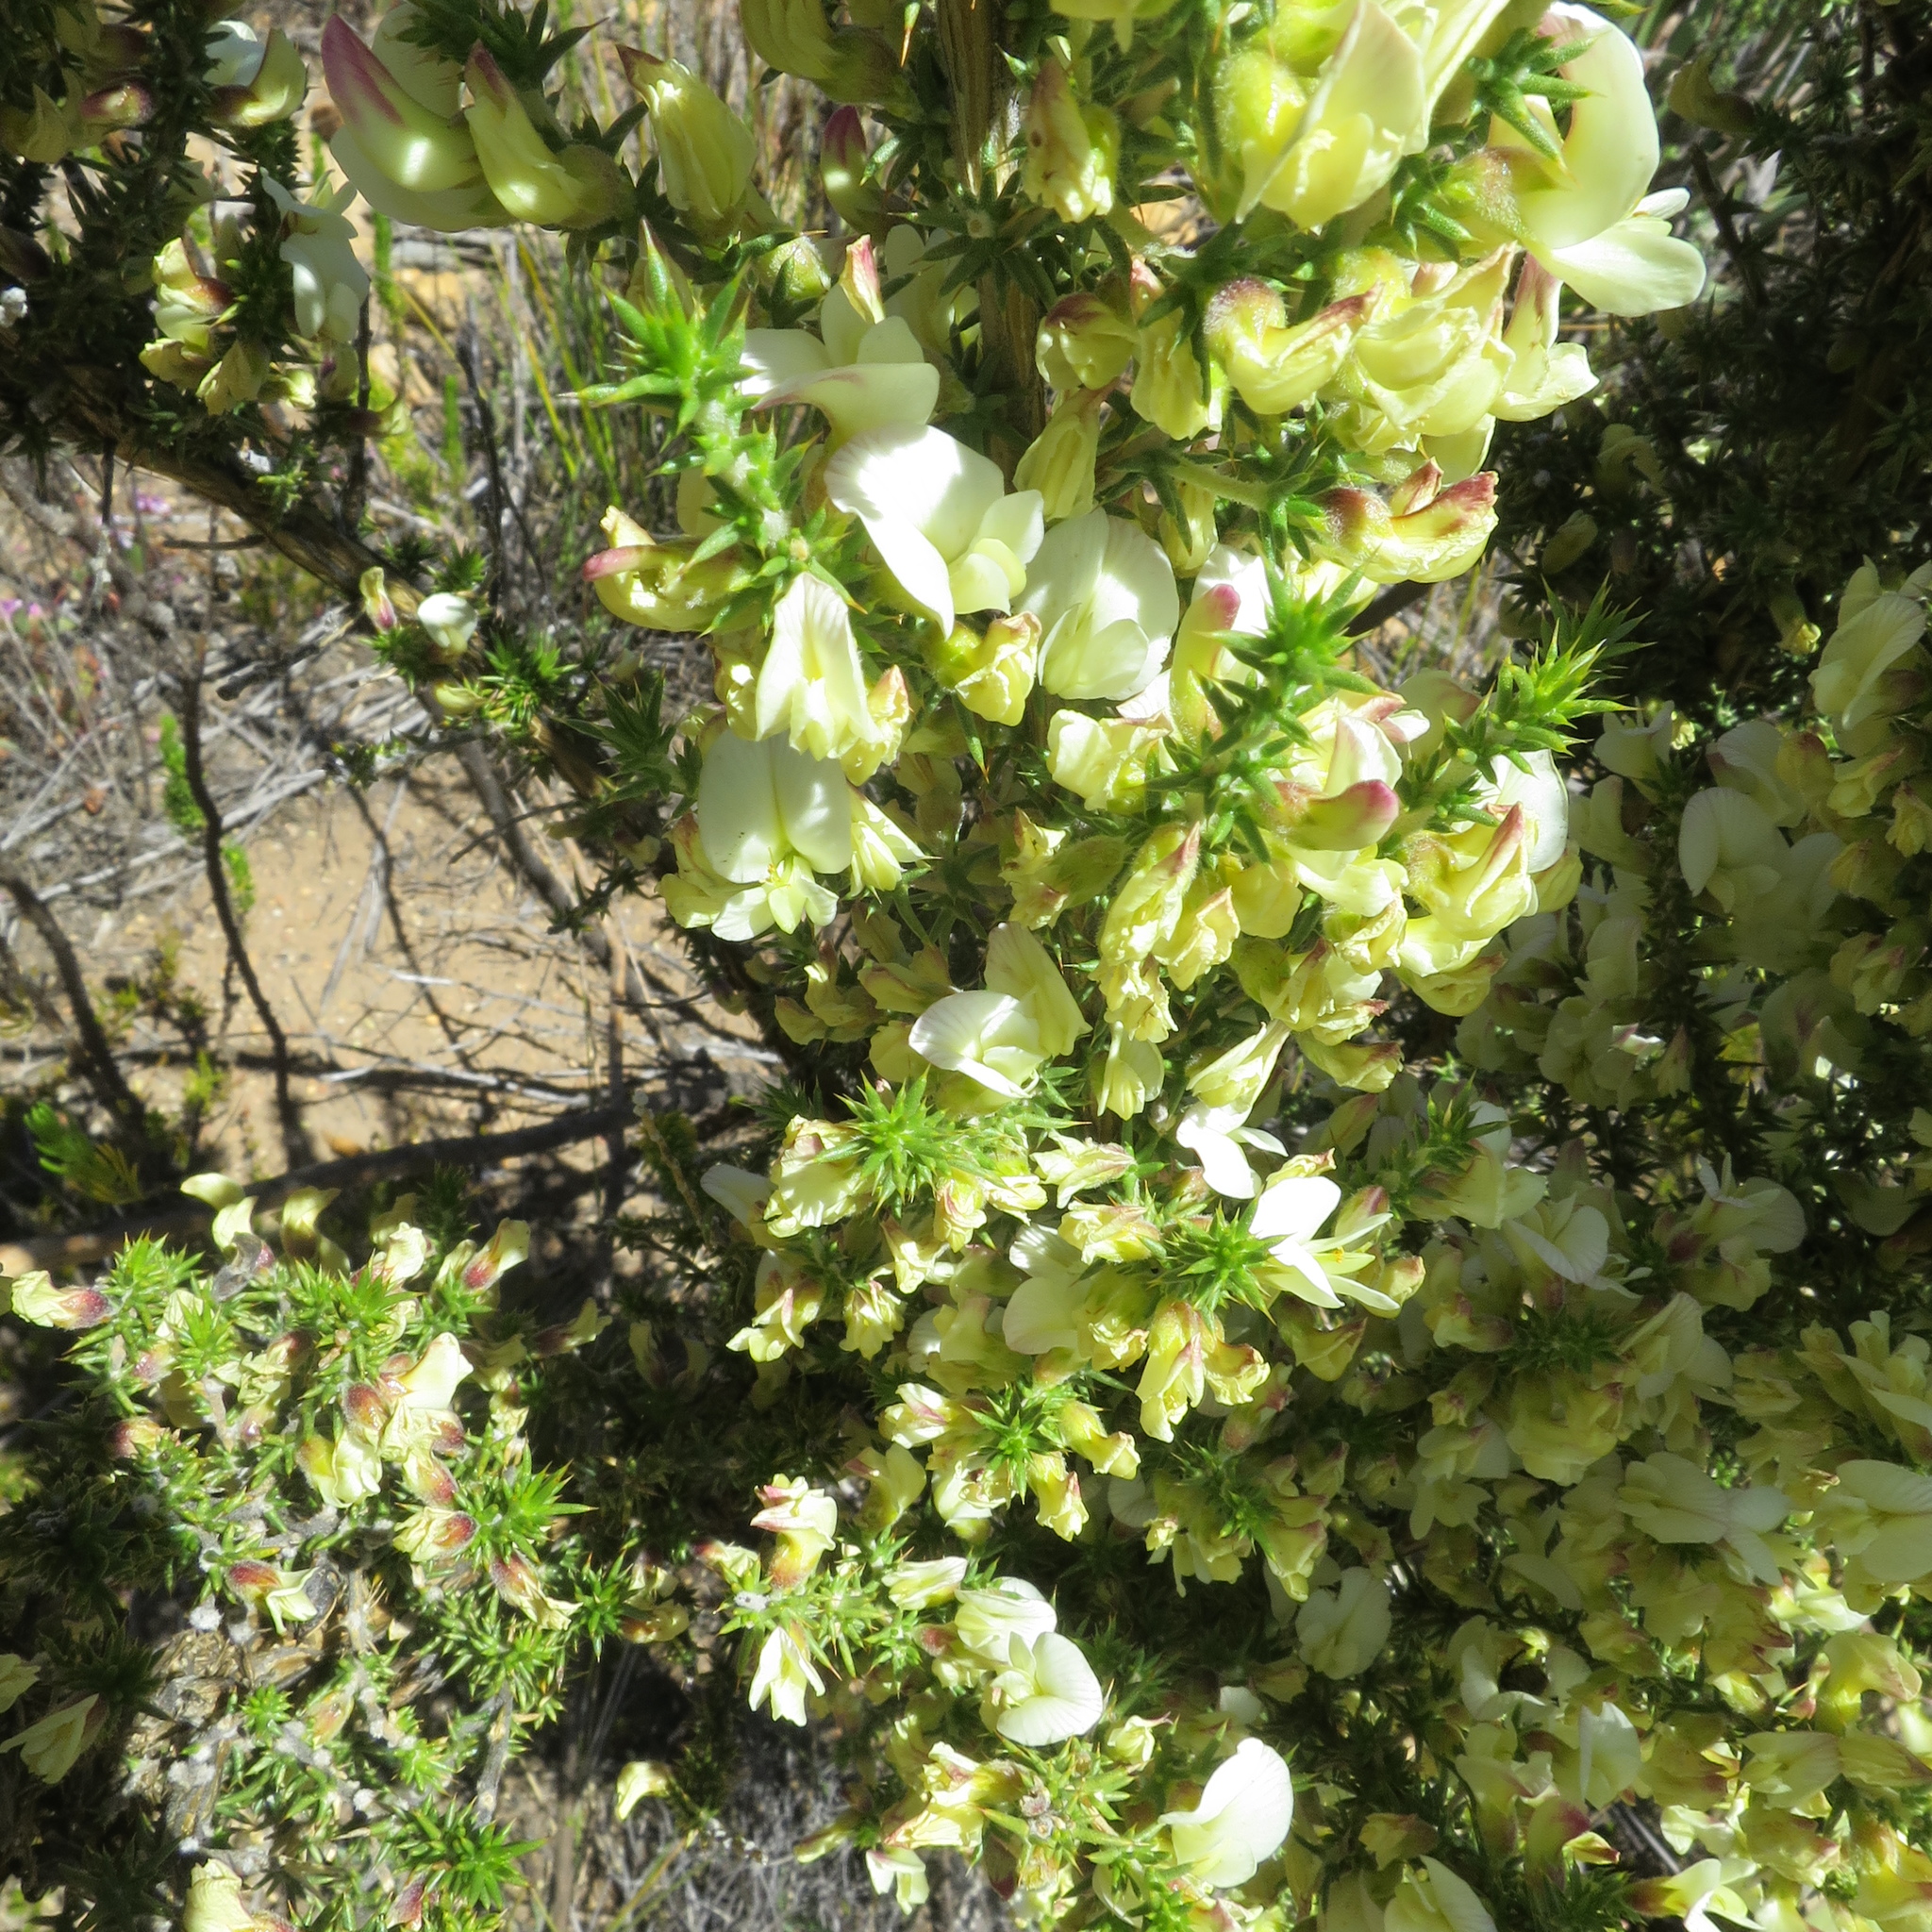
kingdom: Plantae
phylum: Tracheophyta
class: Magnoliopsida
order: Fabales
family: Fabaceae
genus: Aspalathus
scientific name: Aspalathus collina
